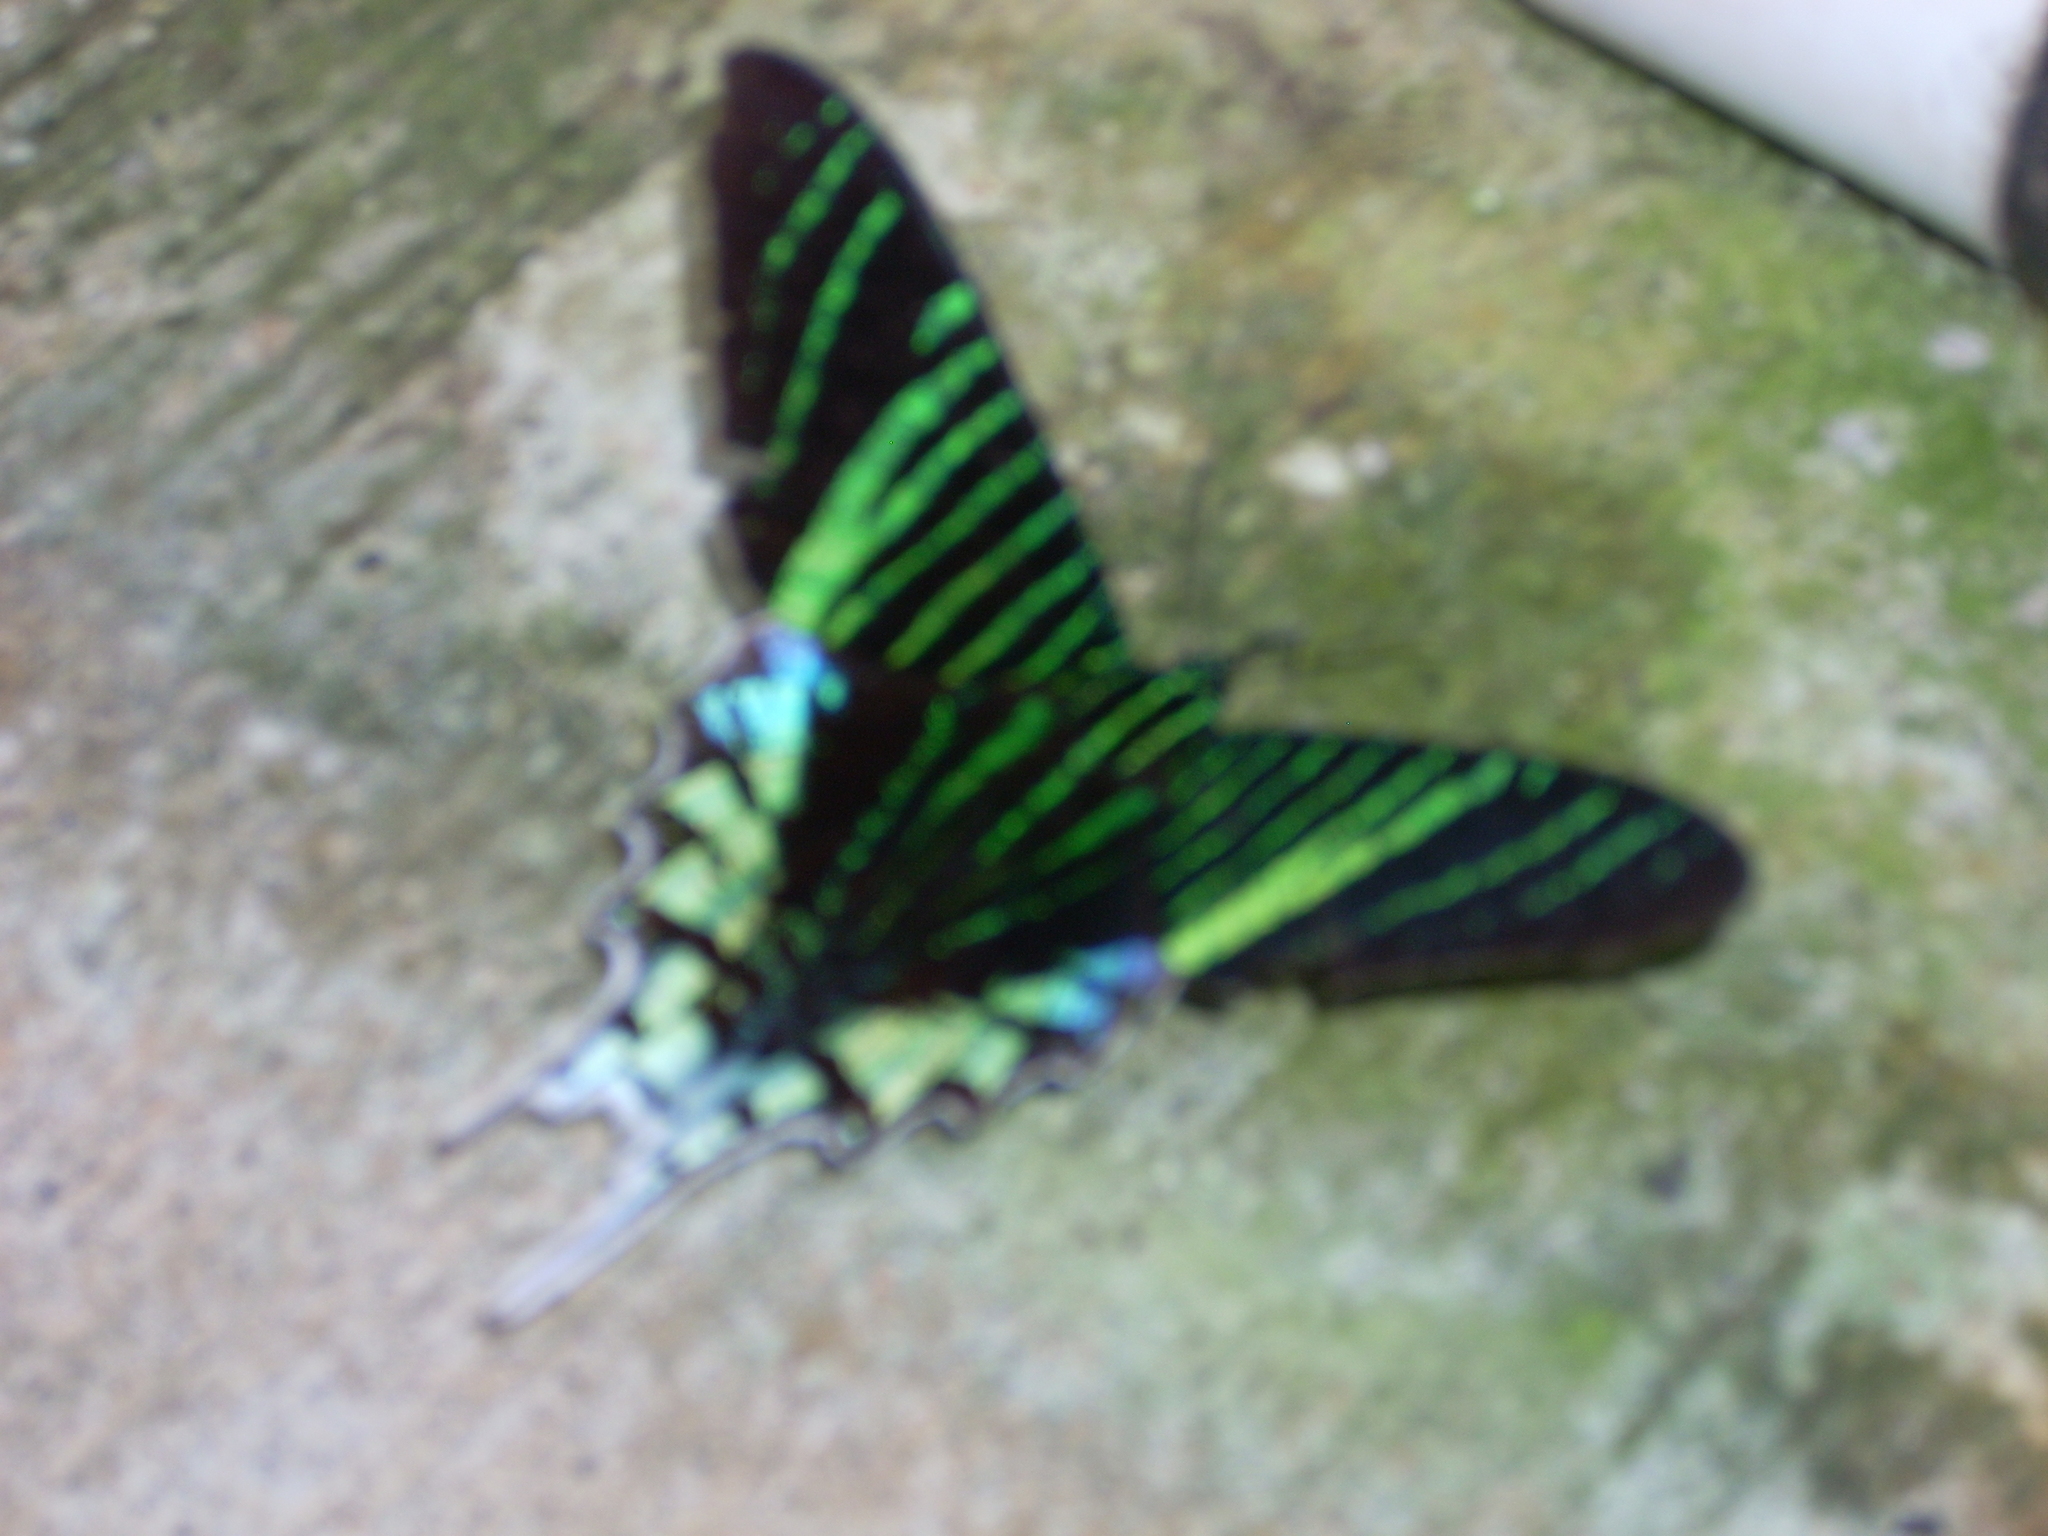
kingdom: Animalia
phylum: Arthropoda
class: Insecta
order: Lepidoptera
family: Uraniidae
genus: Urania
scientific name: Urania leilus
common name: Peacock moth
